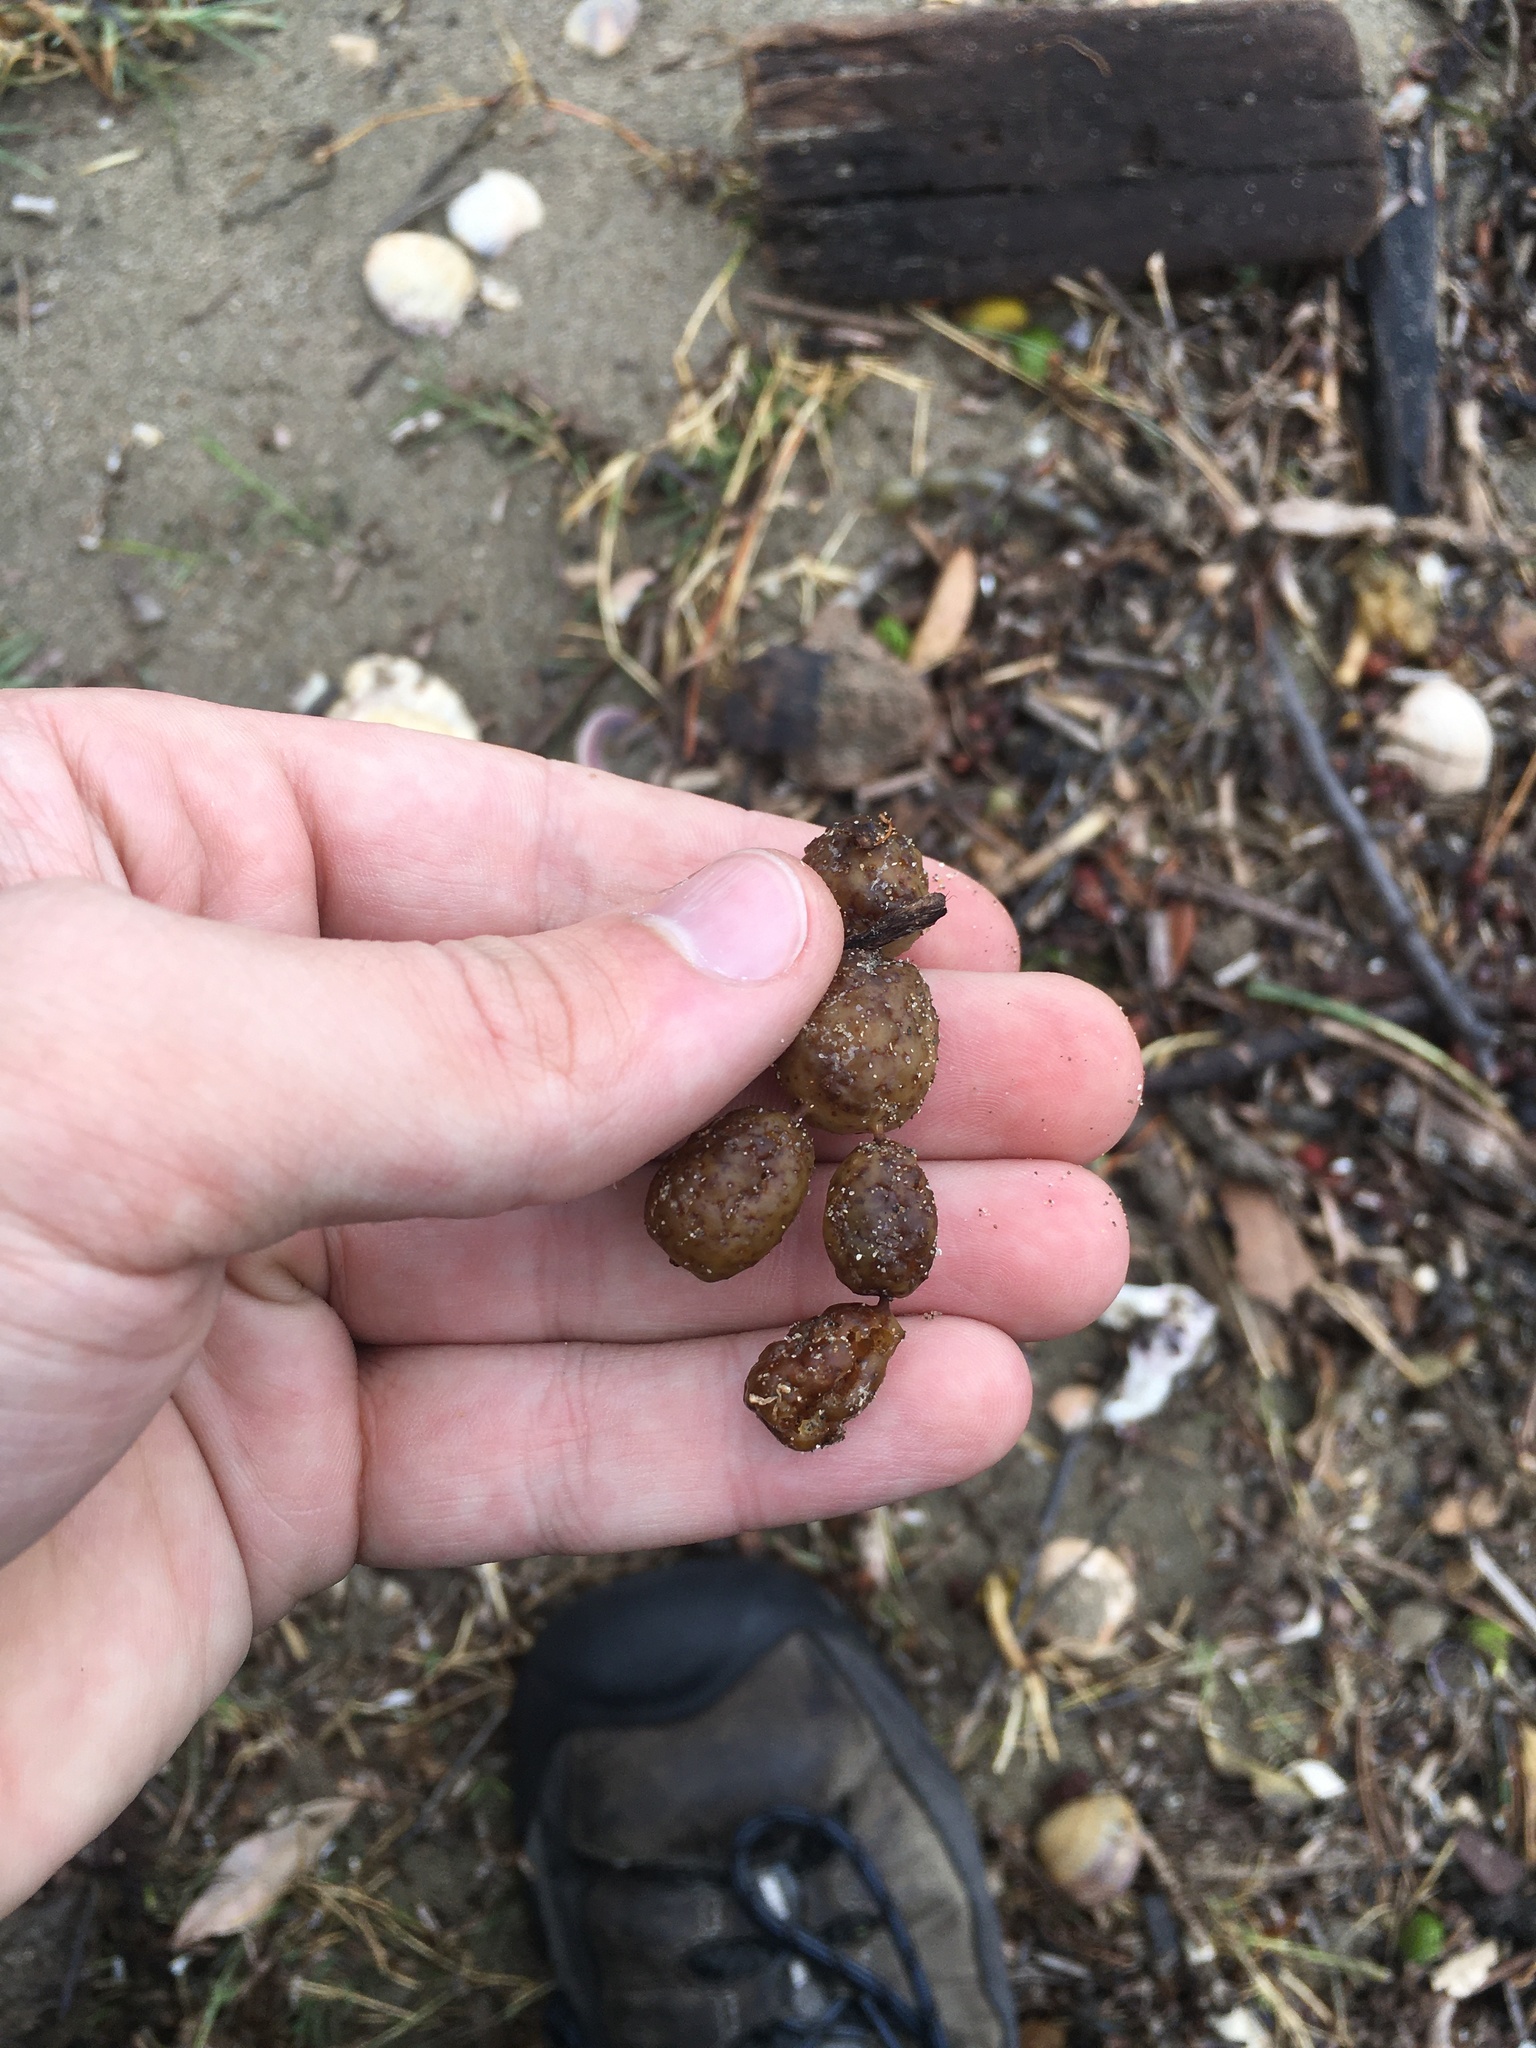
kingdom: Chromista
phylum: Ochrophyta
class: Phaeophyceae
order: Fucales
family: Hormosiraceae
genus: Hormosira
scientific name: Hormosira banksii
